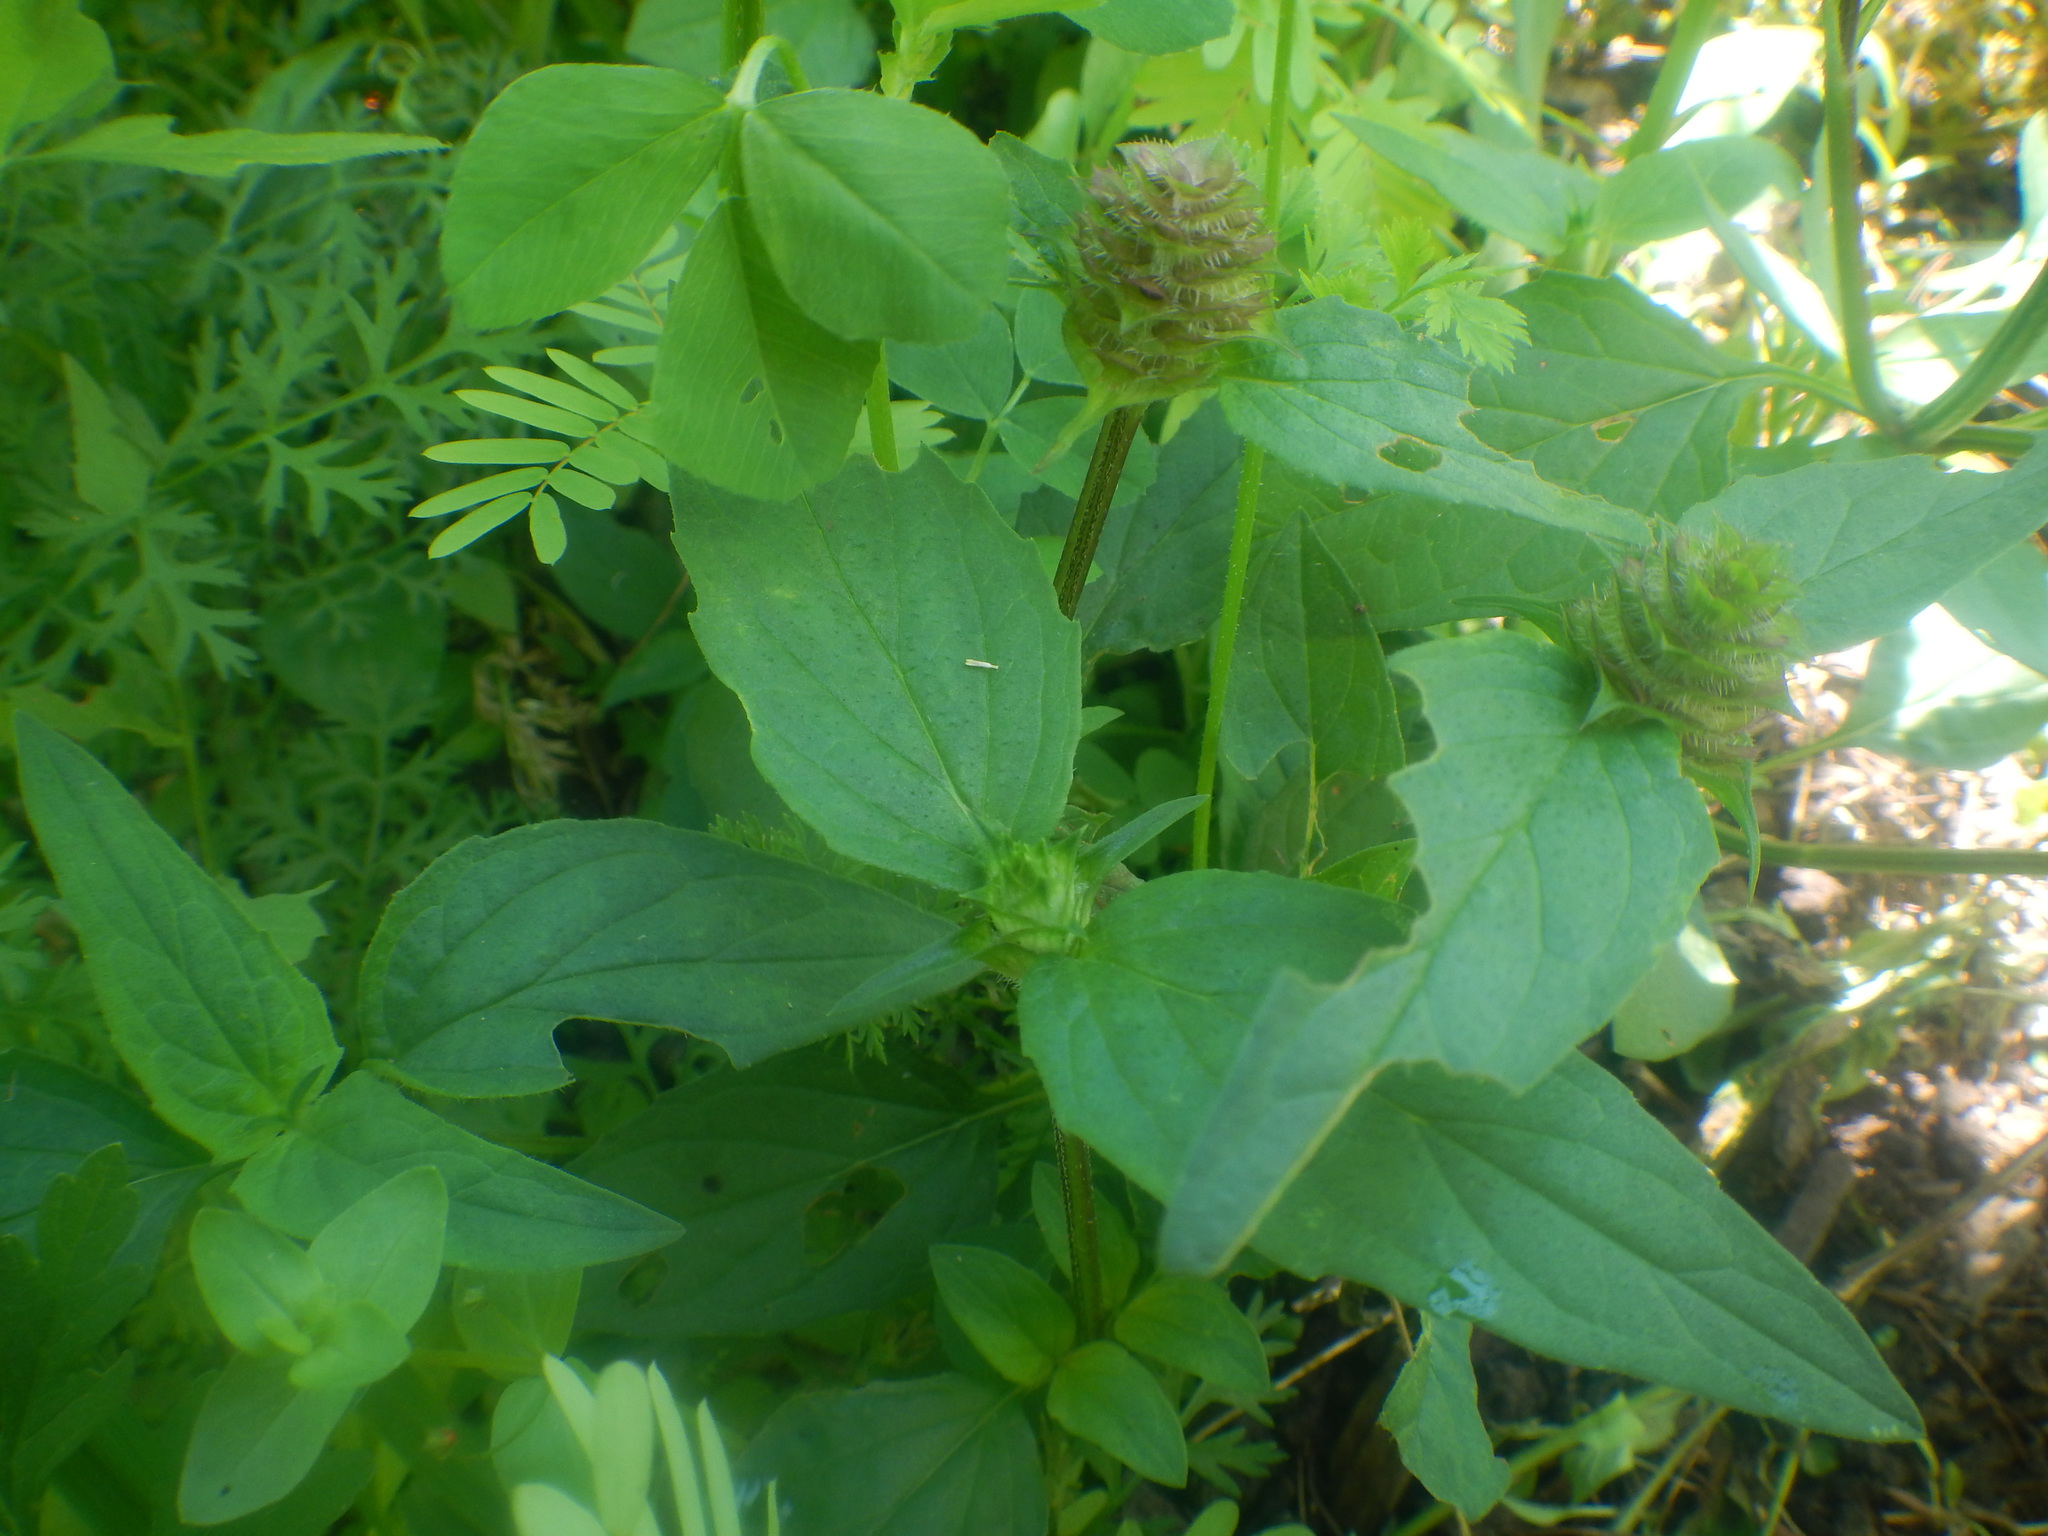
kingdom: Plantae
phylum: Tracheophyta
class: Magnoliopsida
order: Lamiales
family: Lamiaceae
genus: Prunella
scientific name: Prunella vulgaris
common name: Heal-all
